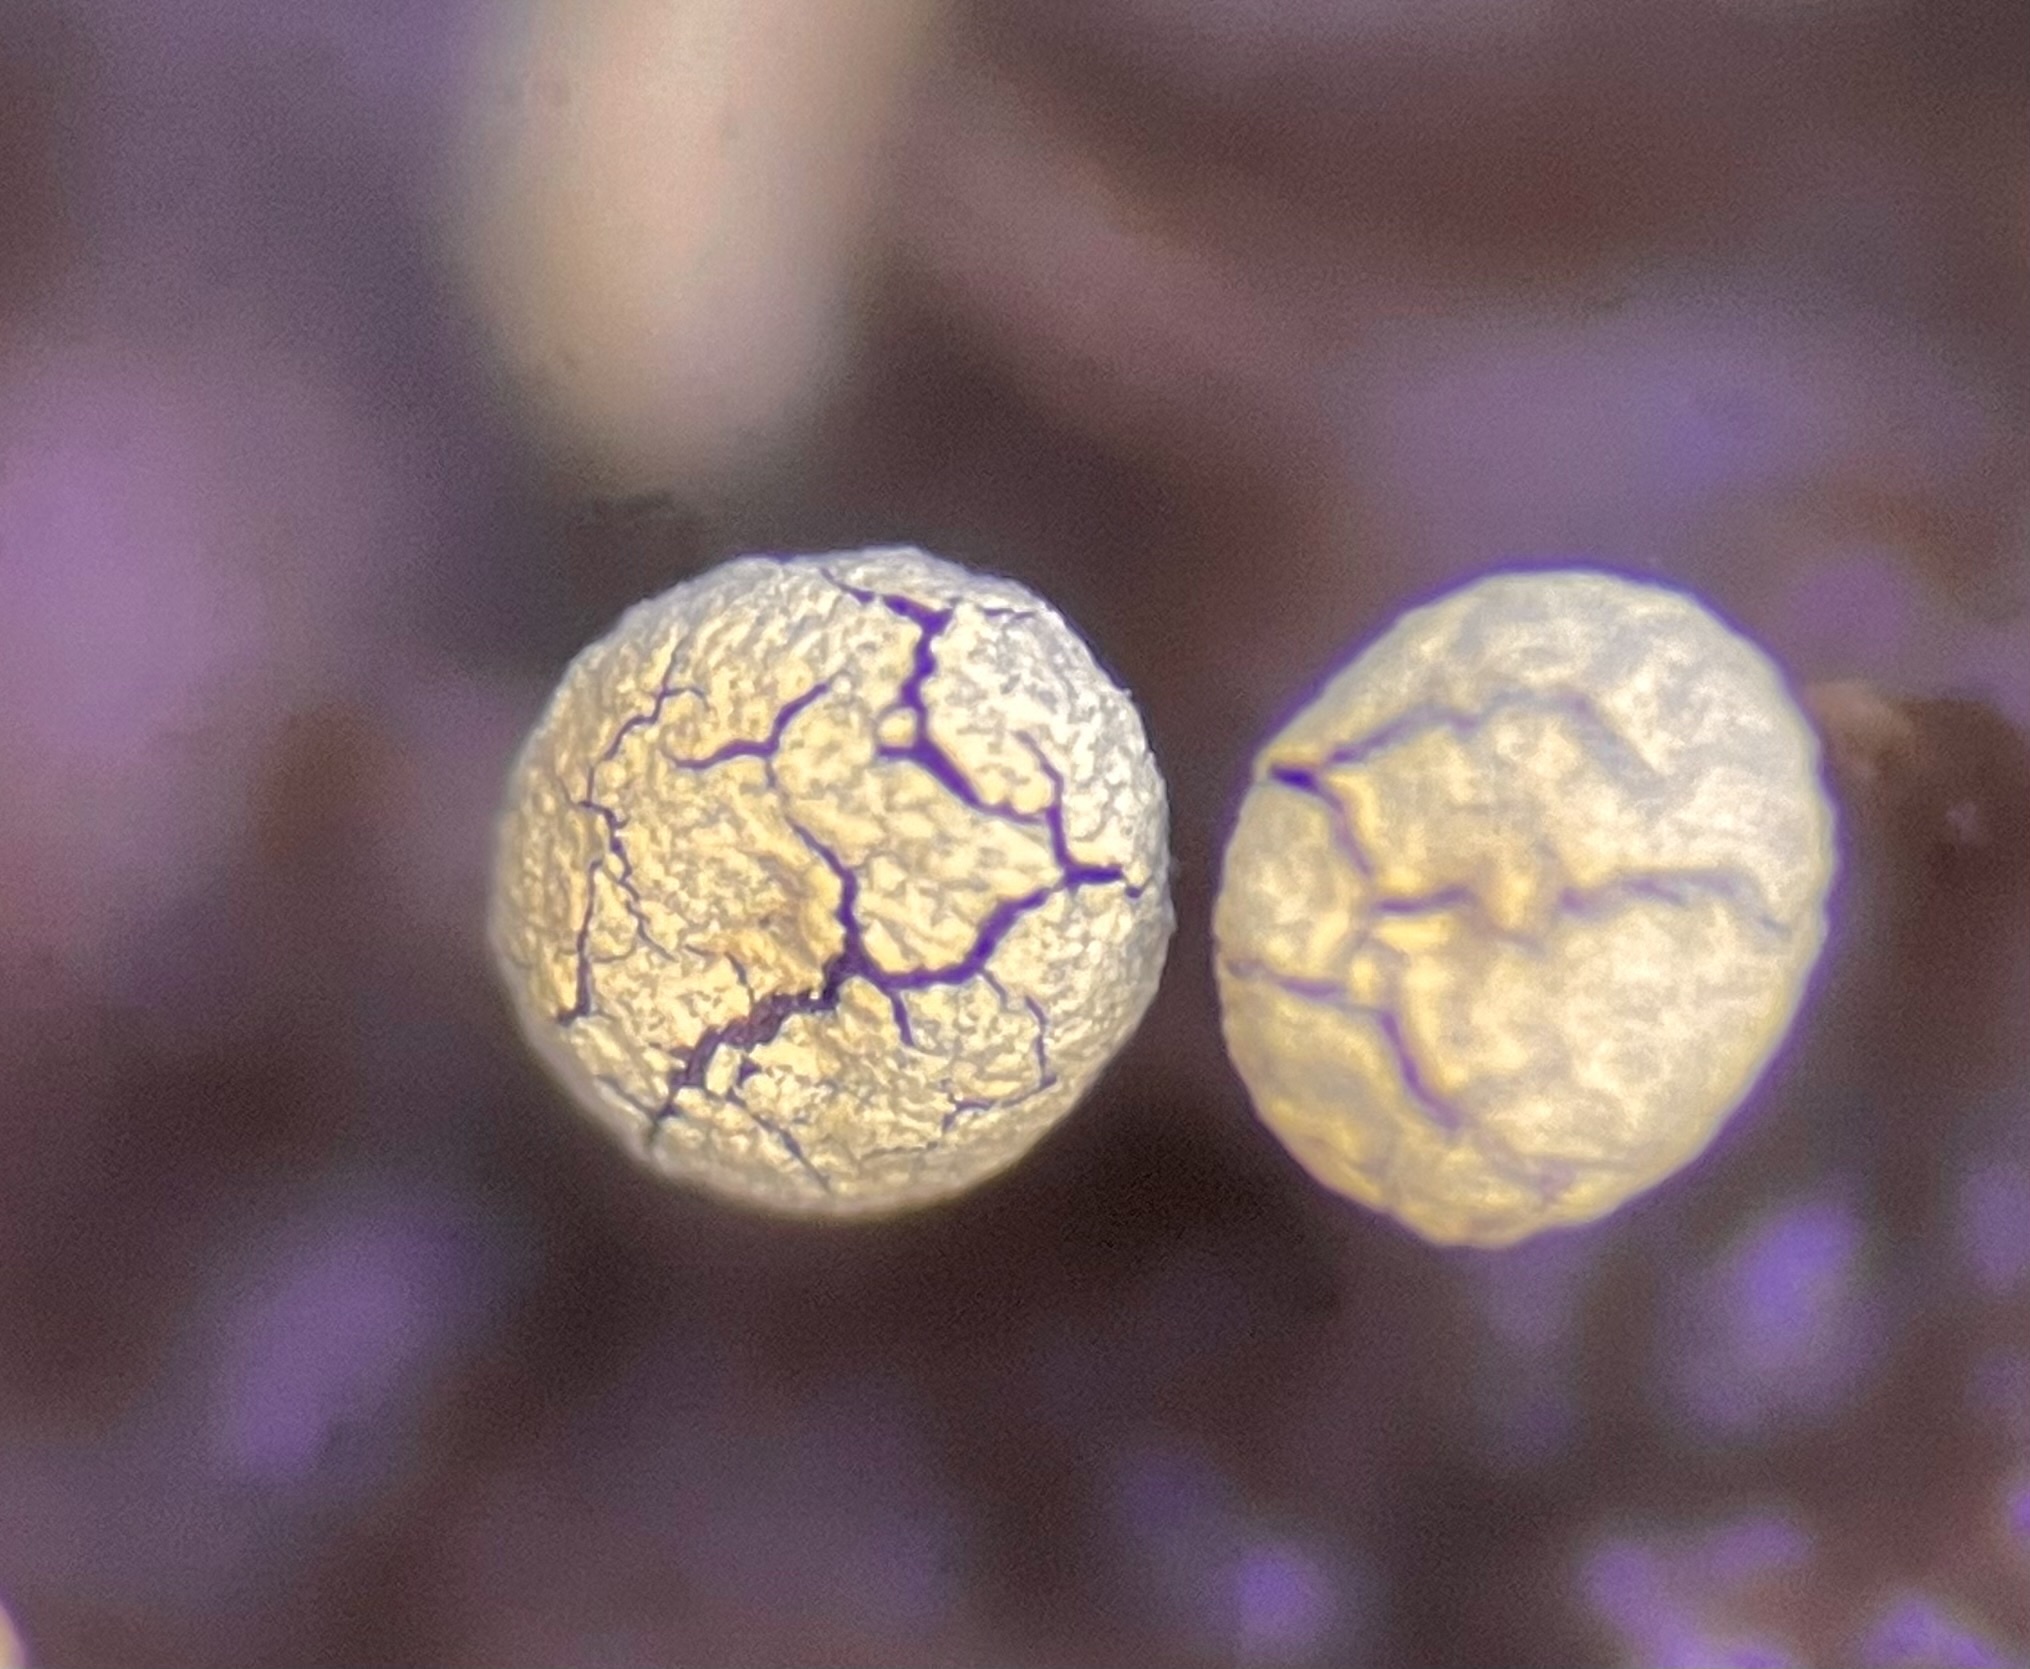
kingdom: Protozoa
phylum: Mycetozoa
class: Myxomycetes
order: Physarales
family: Physaraceae
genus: Physarum
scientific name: Physarum viride
